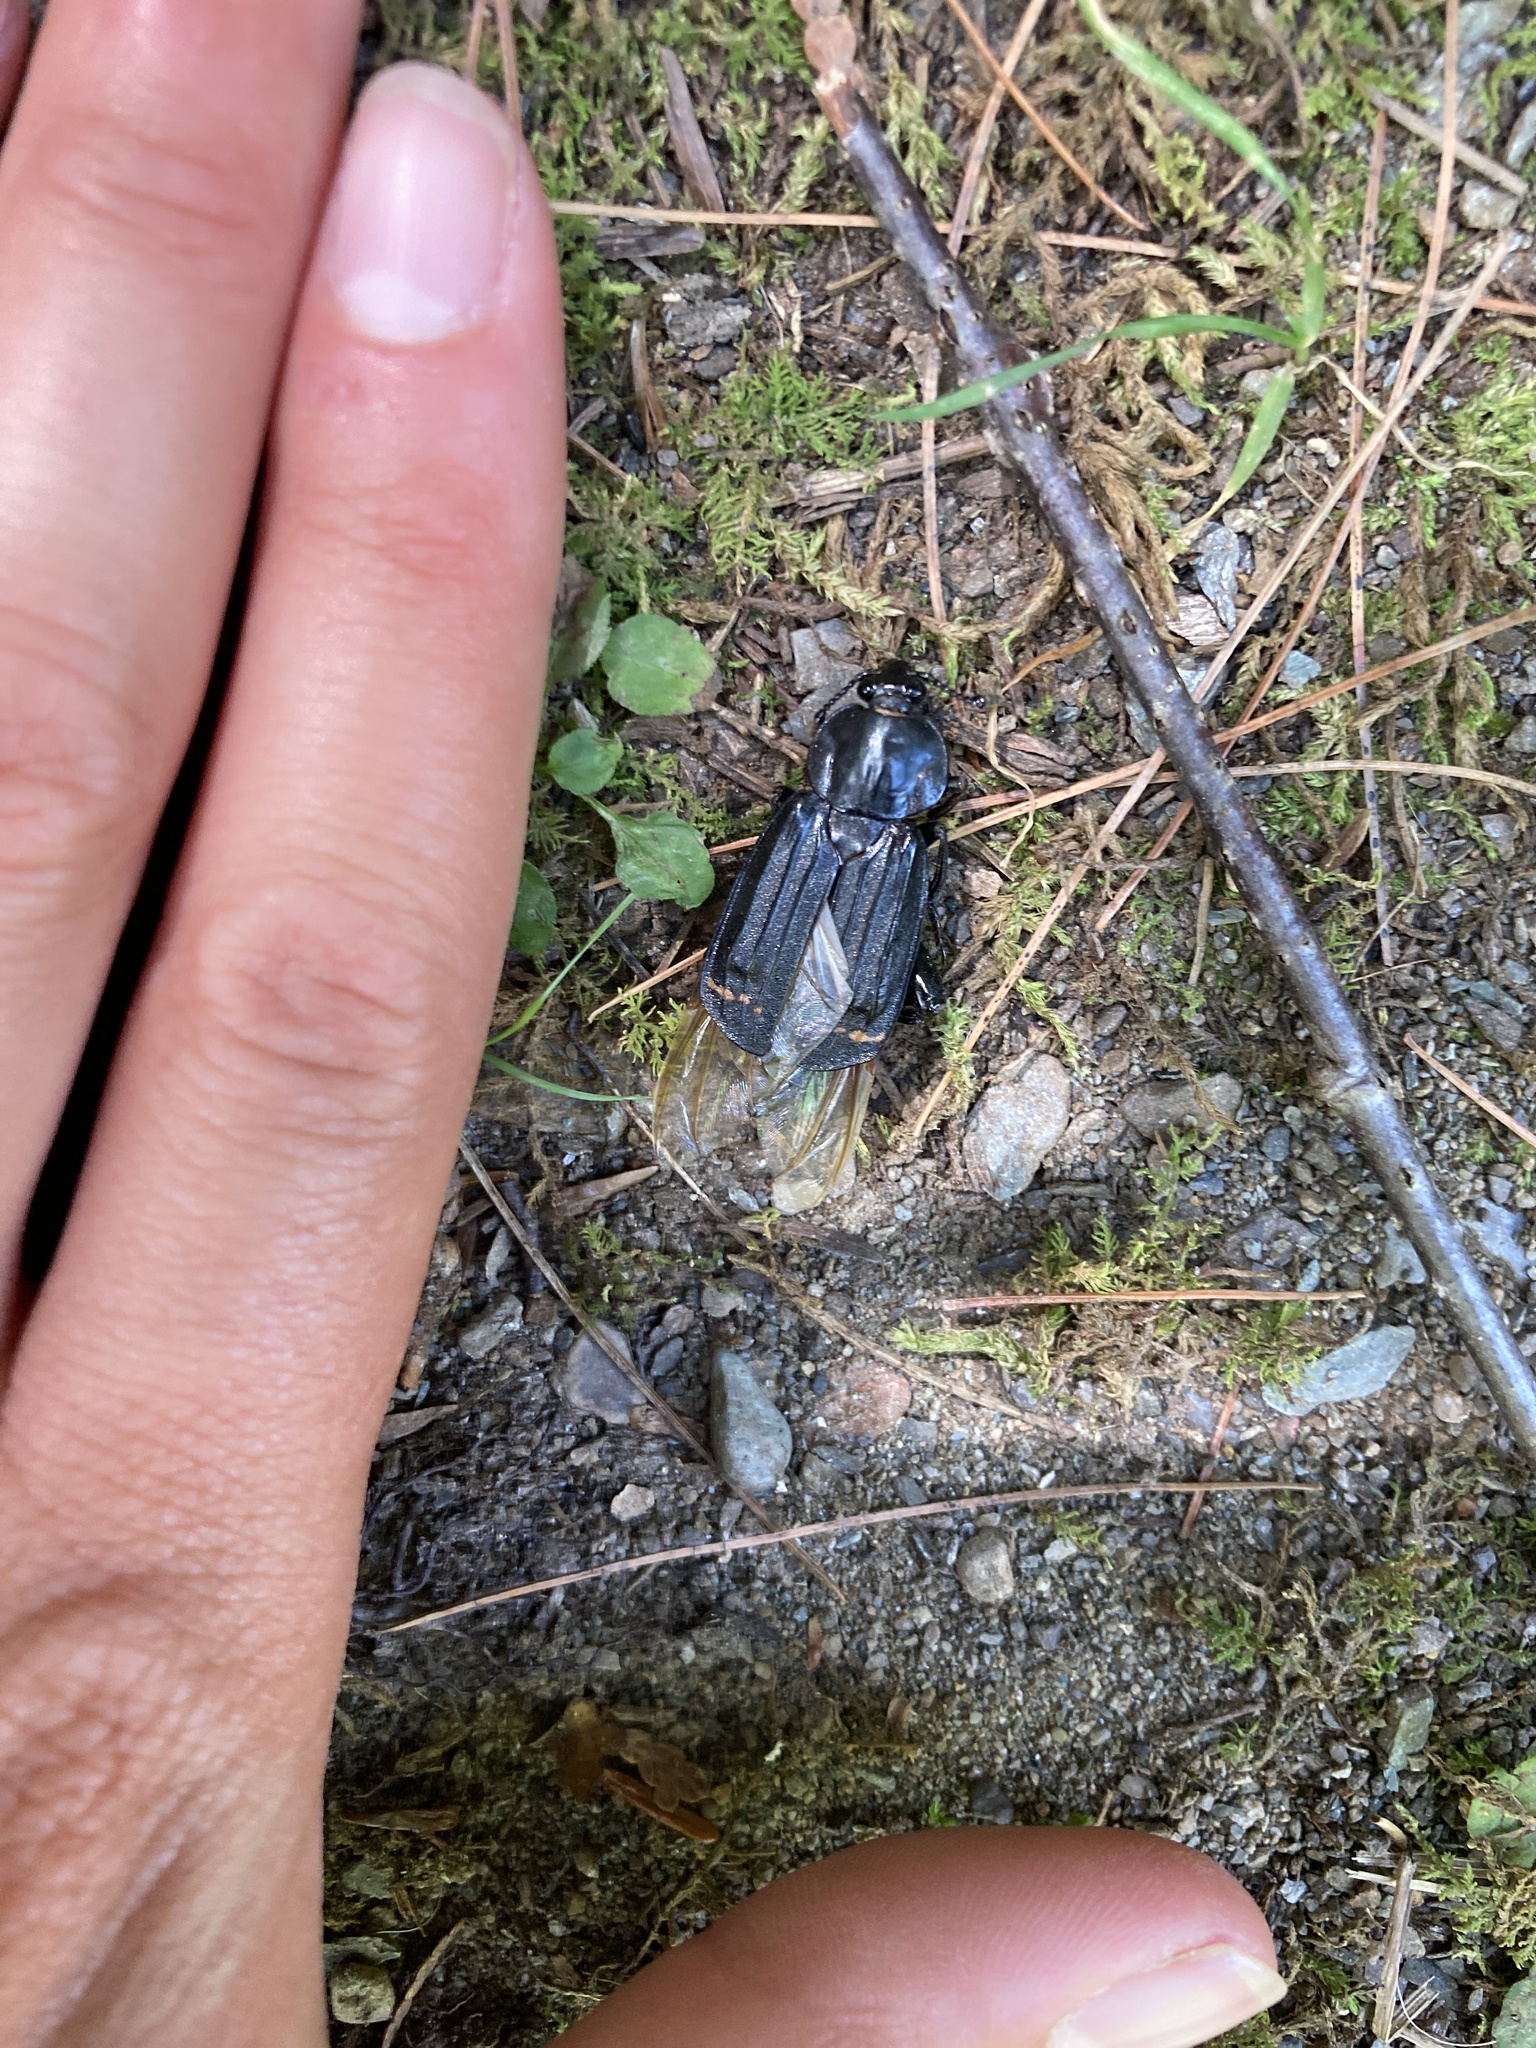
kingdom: Animalia
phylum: Arthropoda
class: Insecta
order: Coleoptera
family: Staphylinidae
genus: Necrodes
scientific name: Necrodes surinamensis
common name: Red-lined carrion beetle
